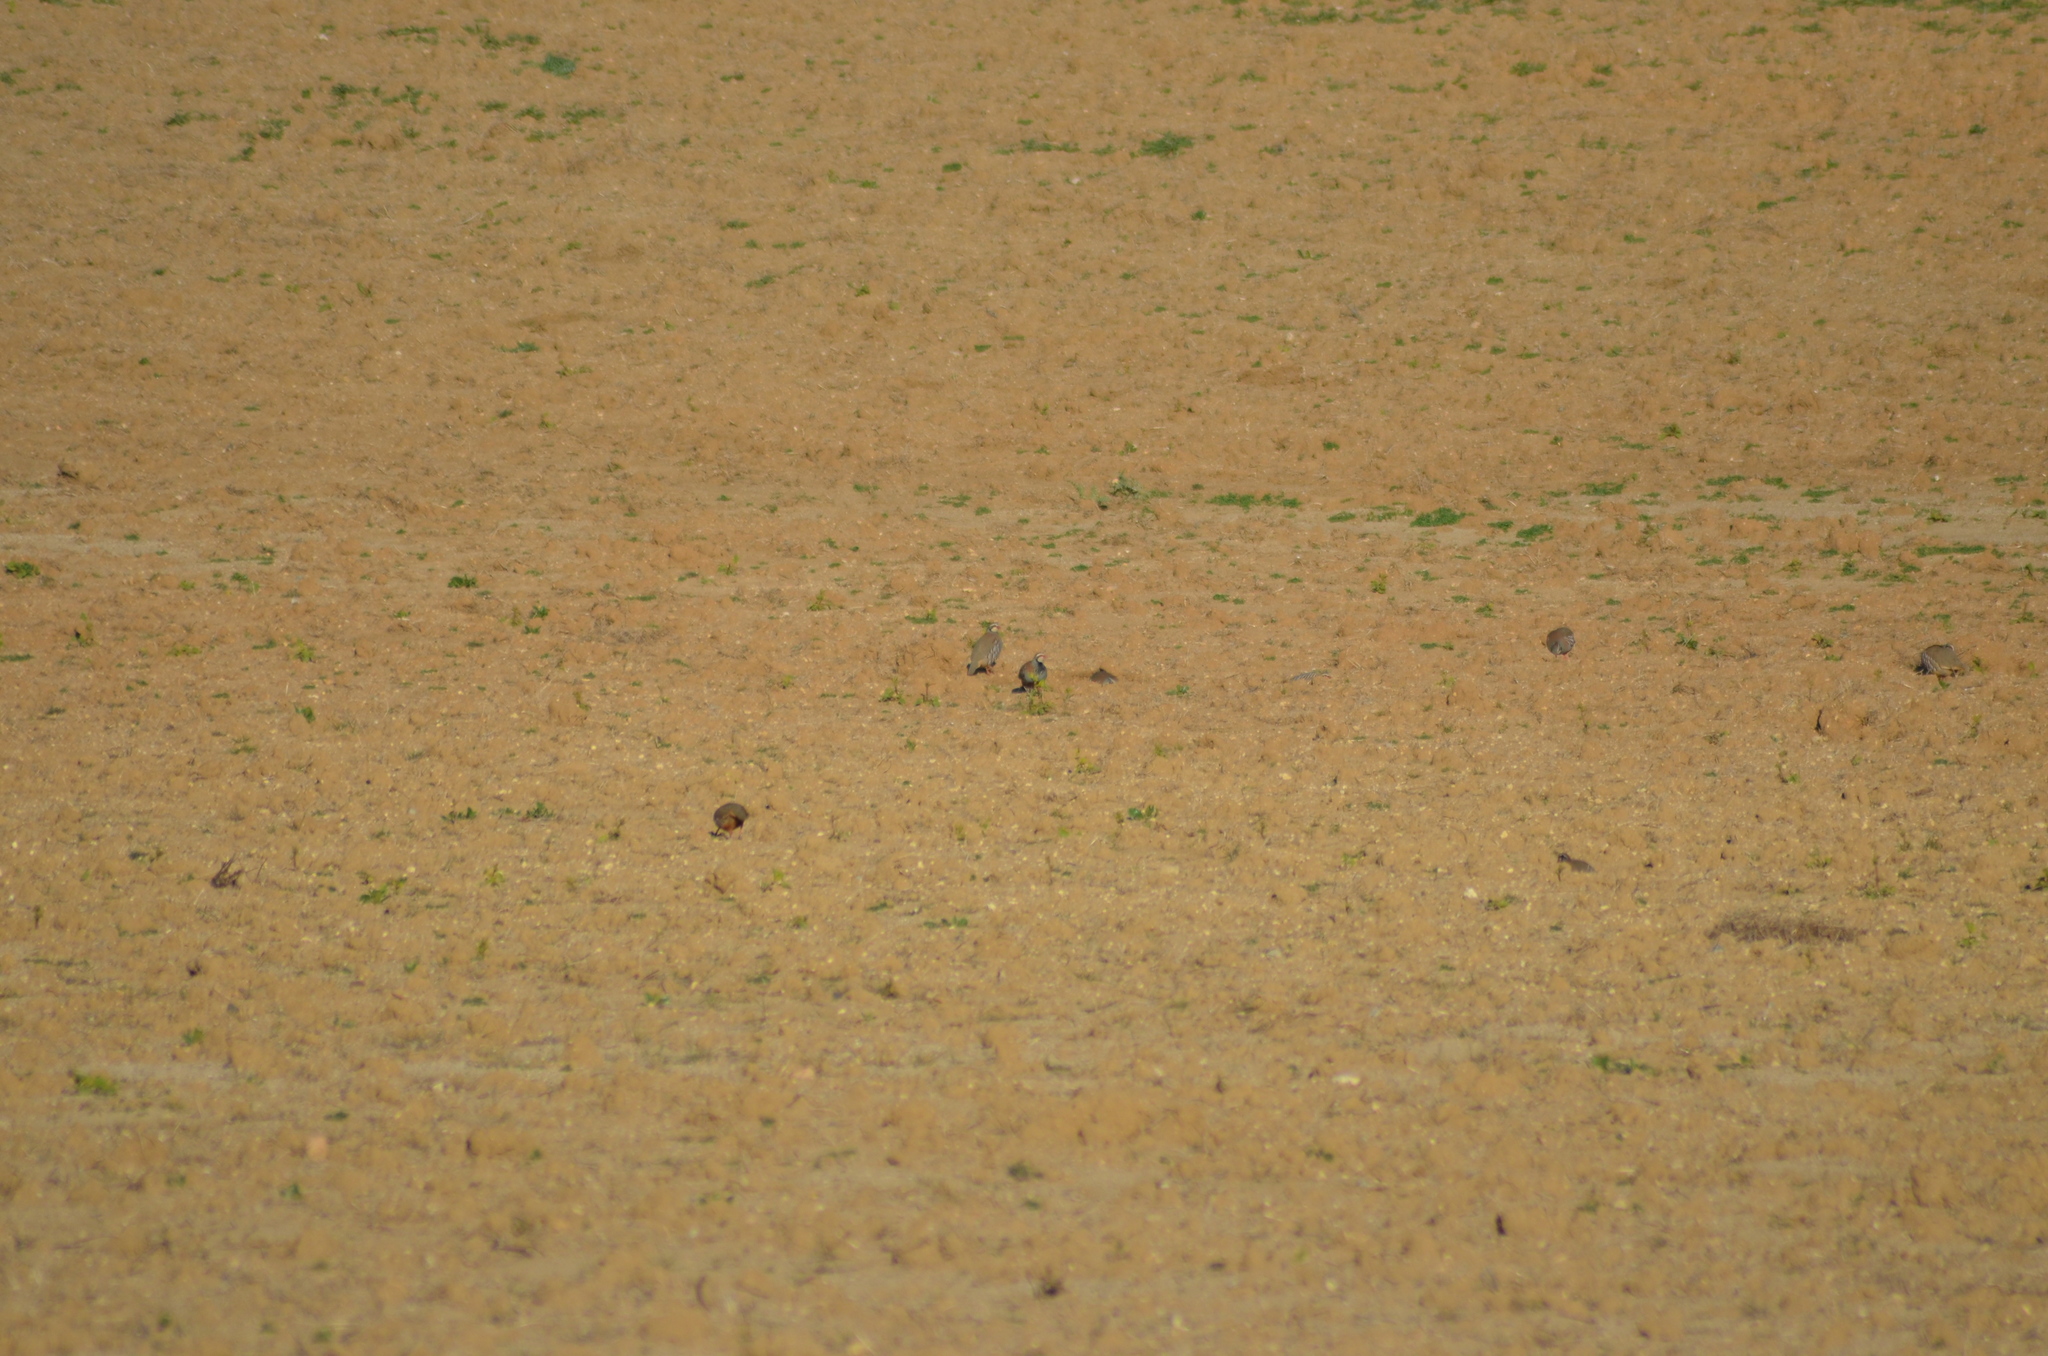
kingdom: Animalia
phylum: Chordata
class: Aves
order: Galliformes
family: Phasianidae
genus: Alectoris
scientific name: Alectoris rufa
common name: Red-legged partridge
